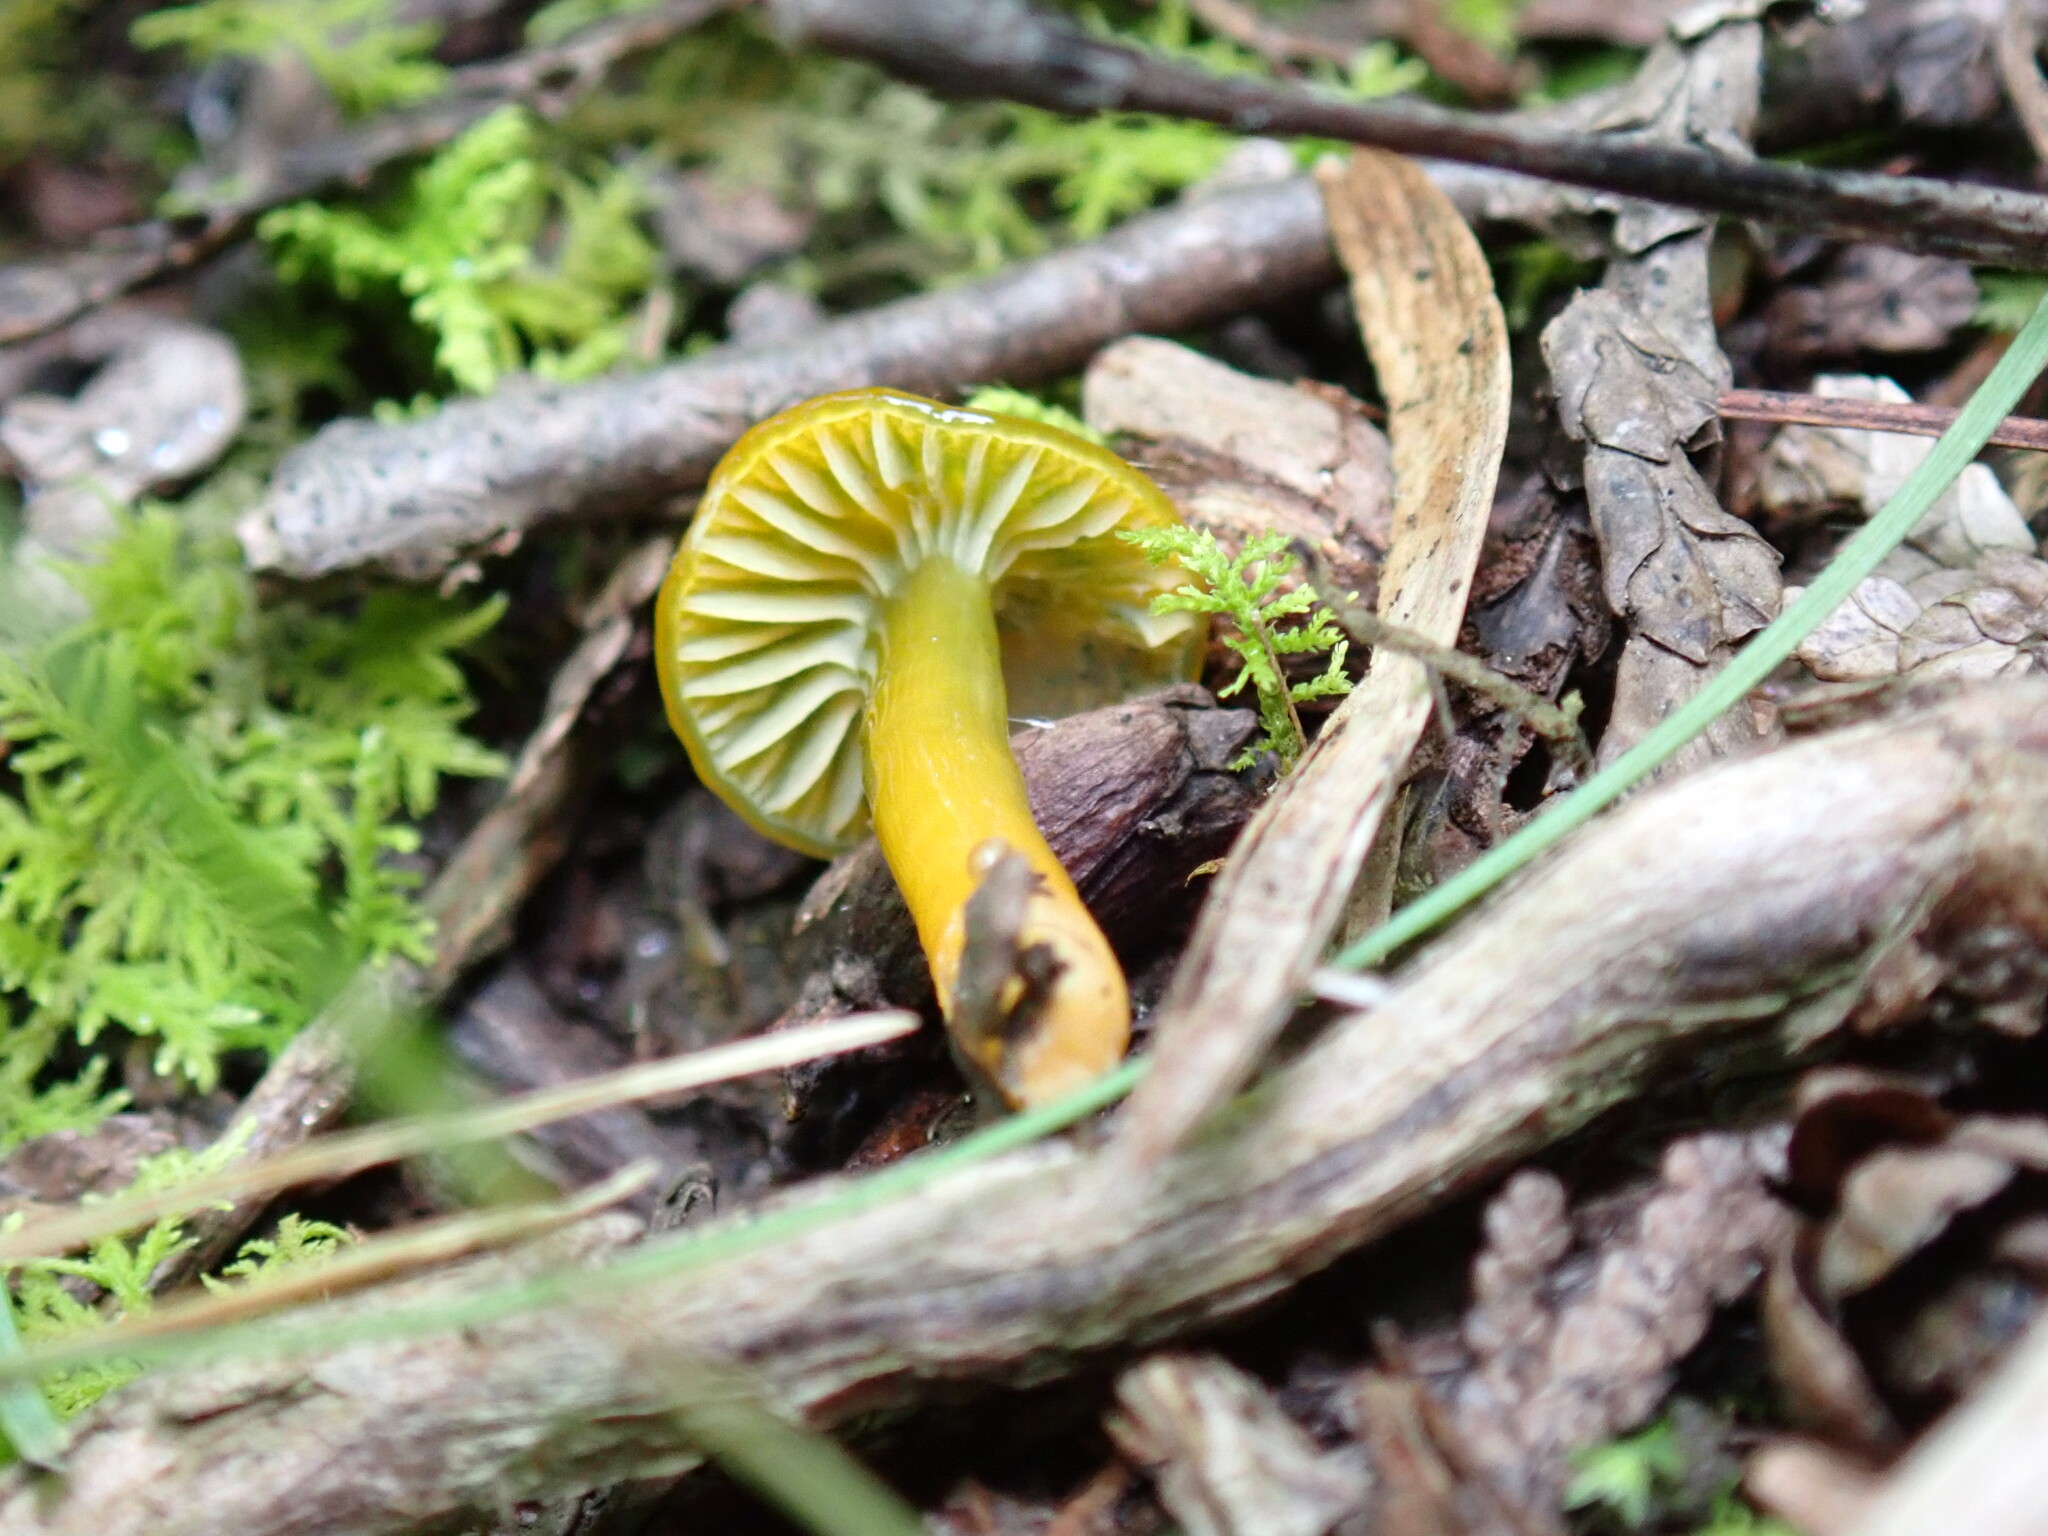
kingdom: Fungi
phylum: Basidiomycota
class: Agaricomycetes
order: Agaricales
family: Hygrophoraceae
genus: Gliophorus
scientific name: Gliophorus psittacinus
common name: Parrot wax-cap
